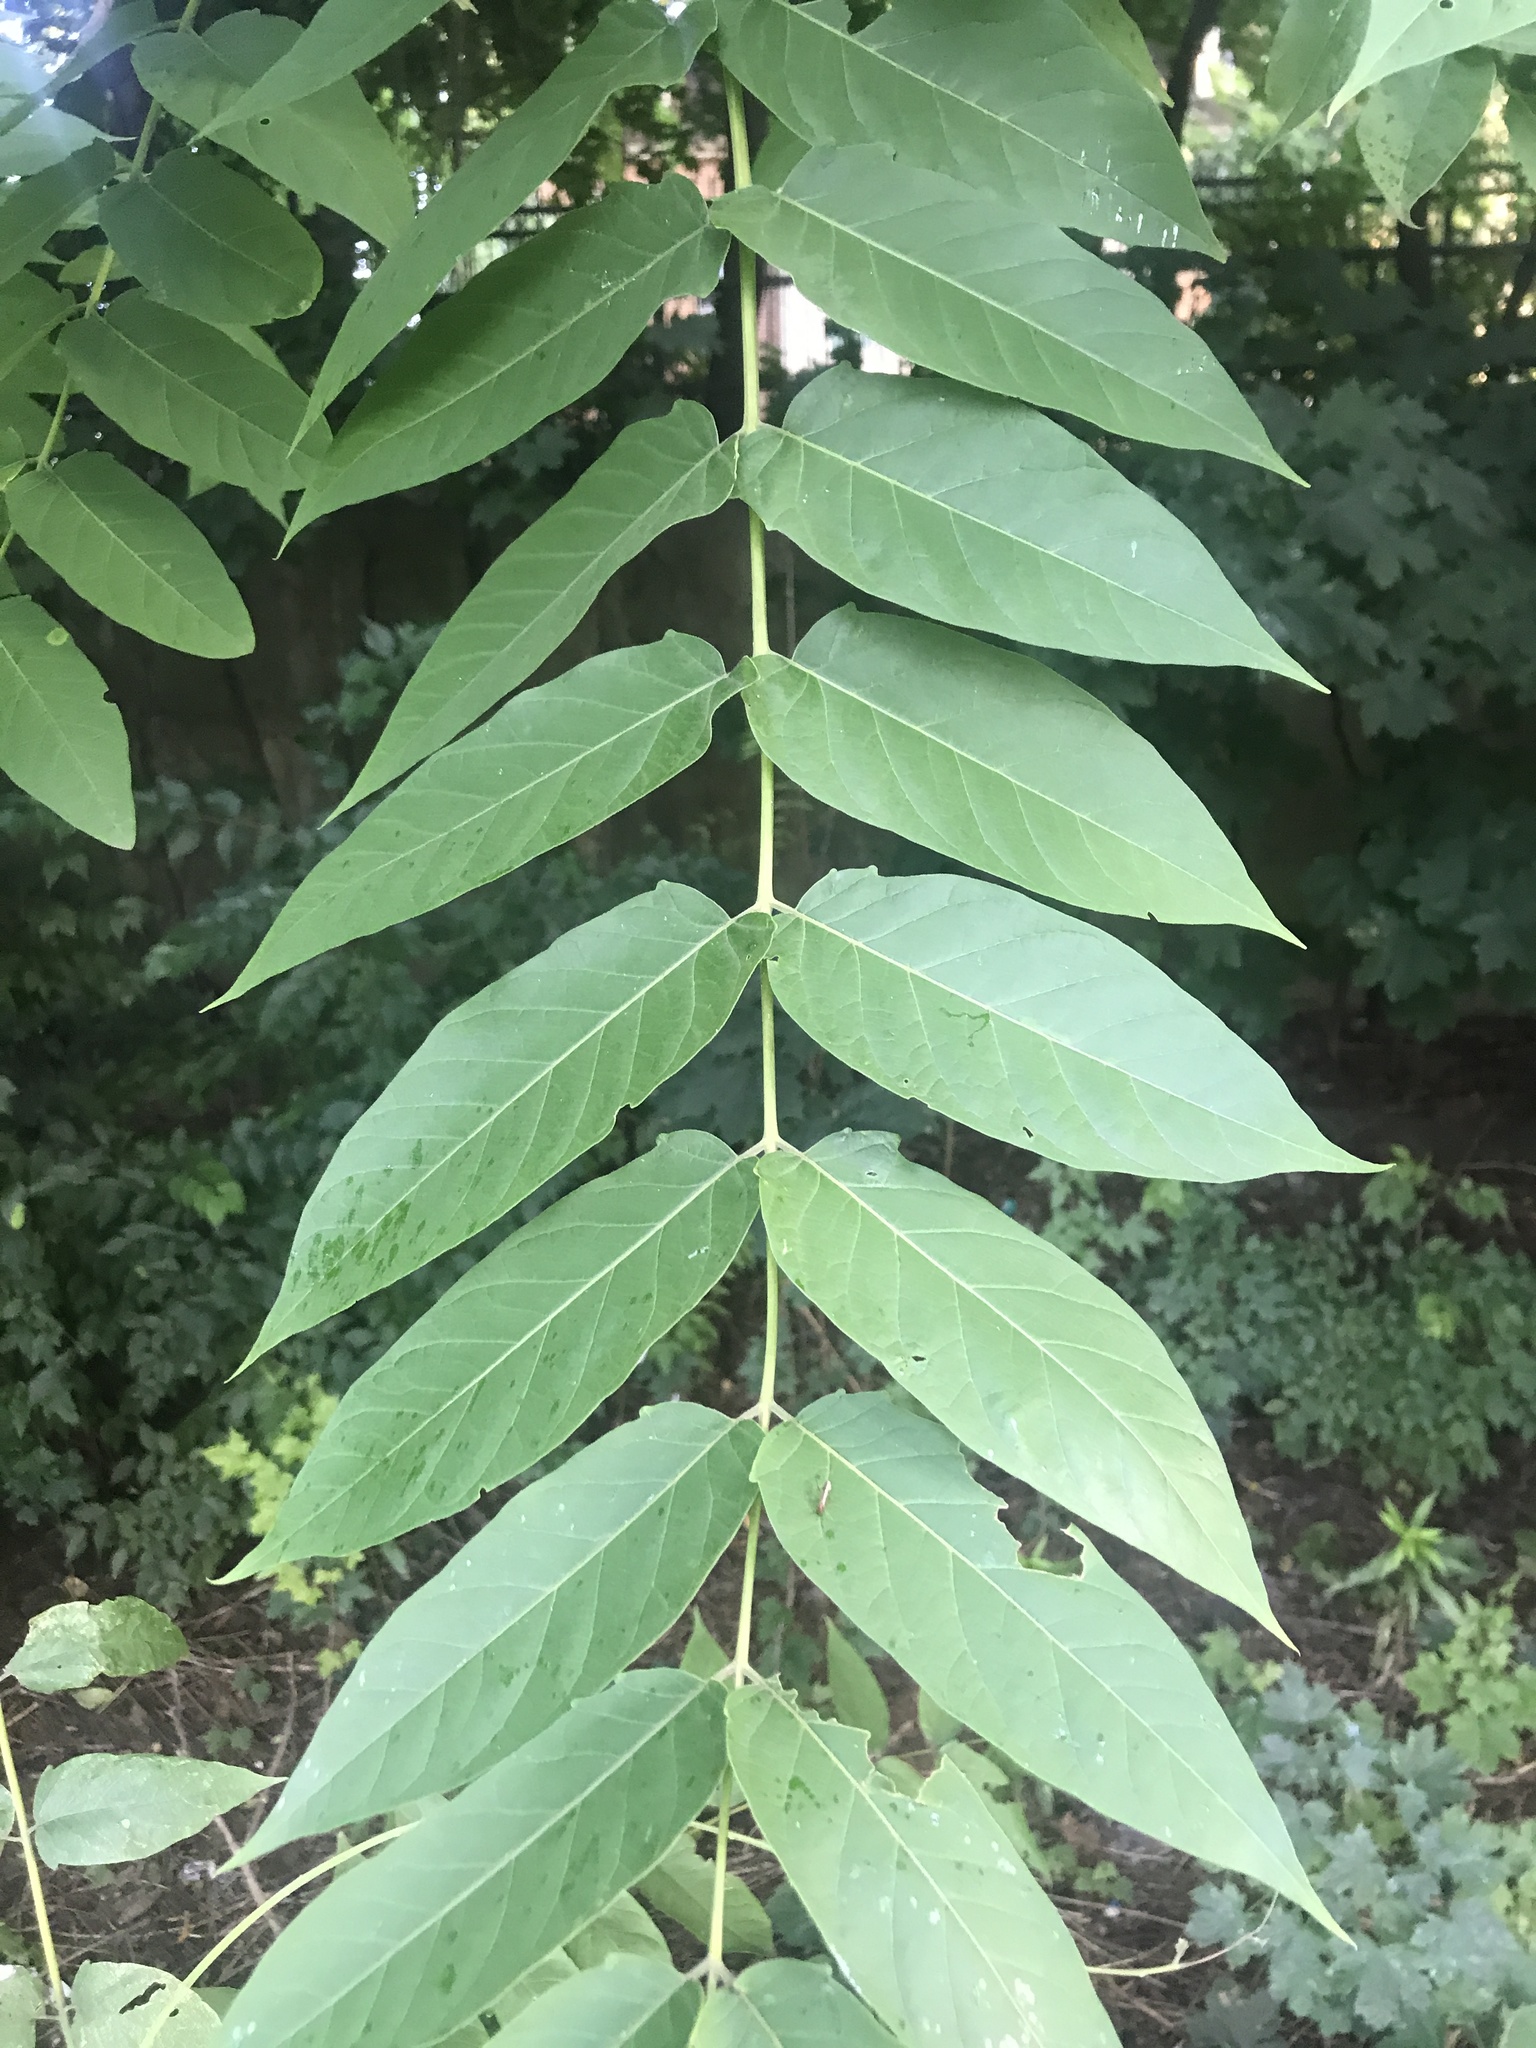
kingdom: Plantae
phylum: Tracheophyta
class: Magnoliopsida
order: Sapindales
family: Simaroubaceae
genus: Ailanthus
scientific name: Ailanthus altissima
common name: Tree-of-heaven
